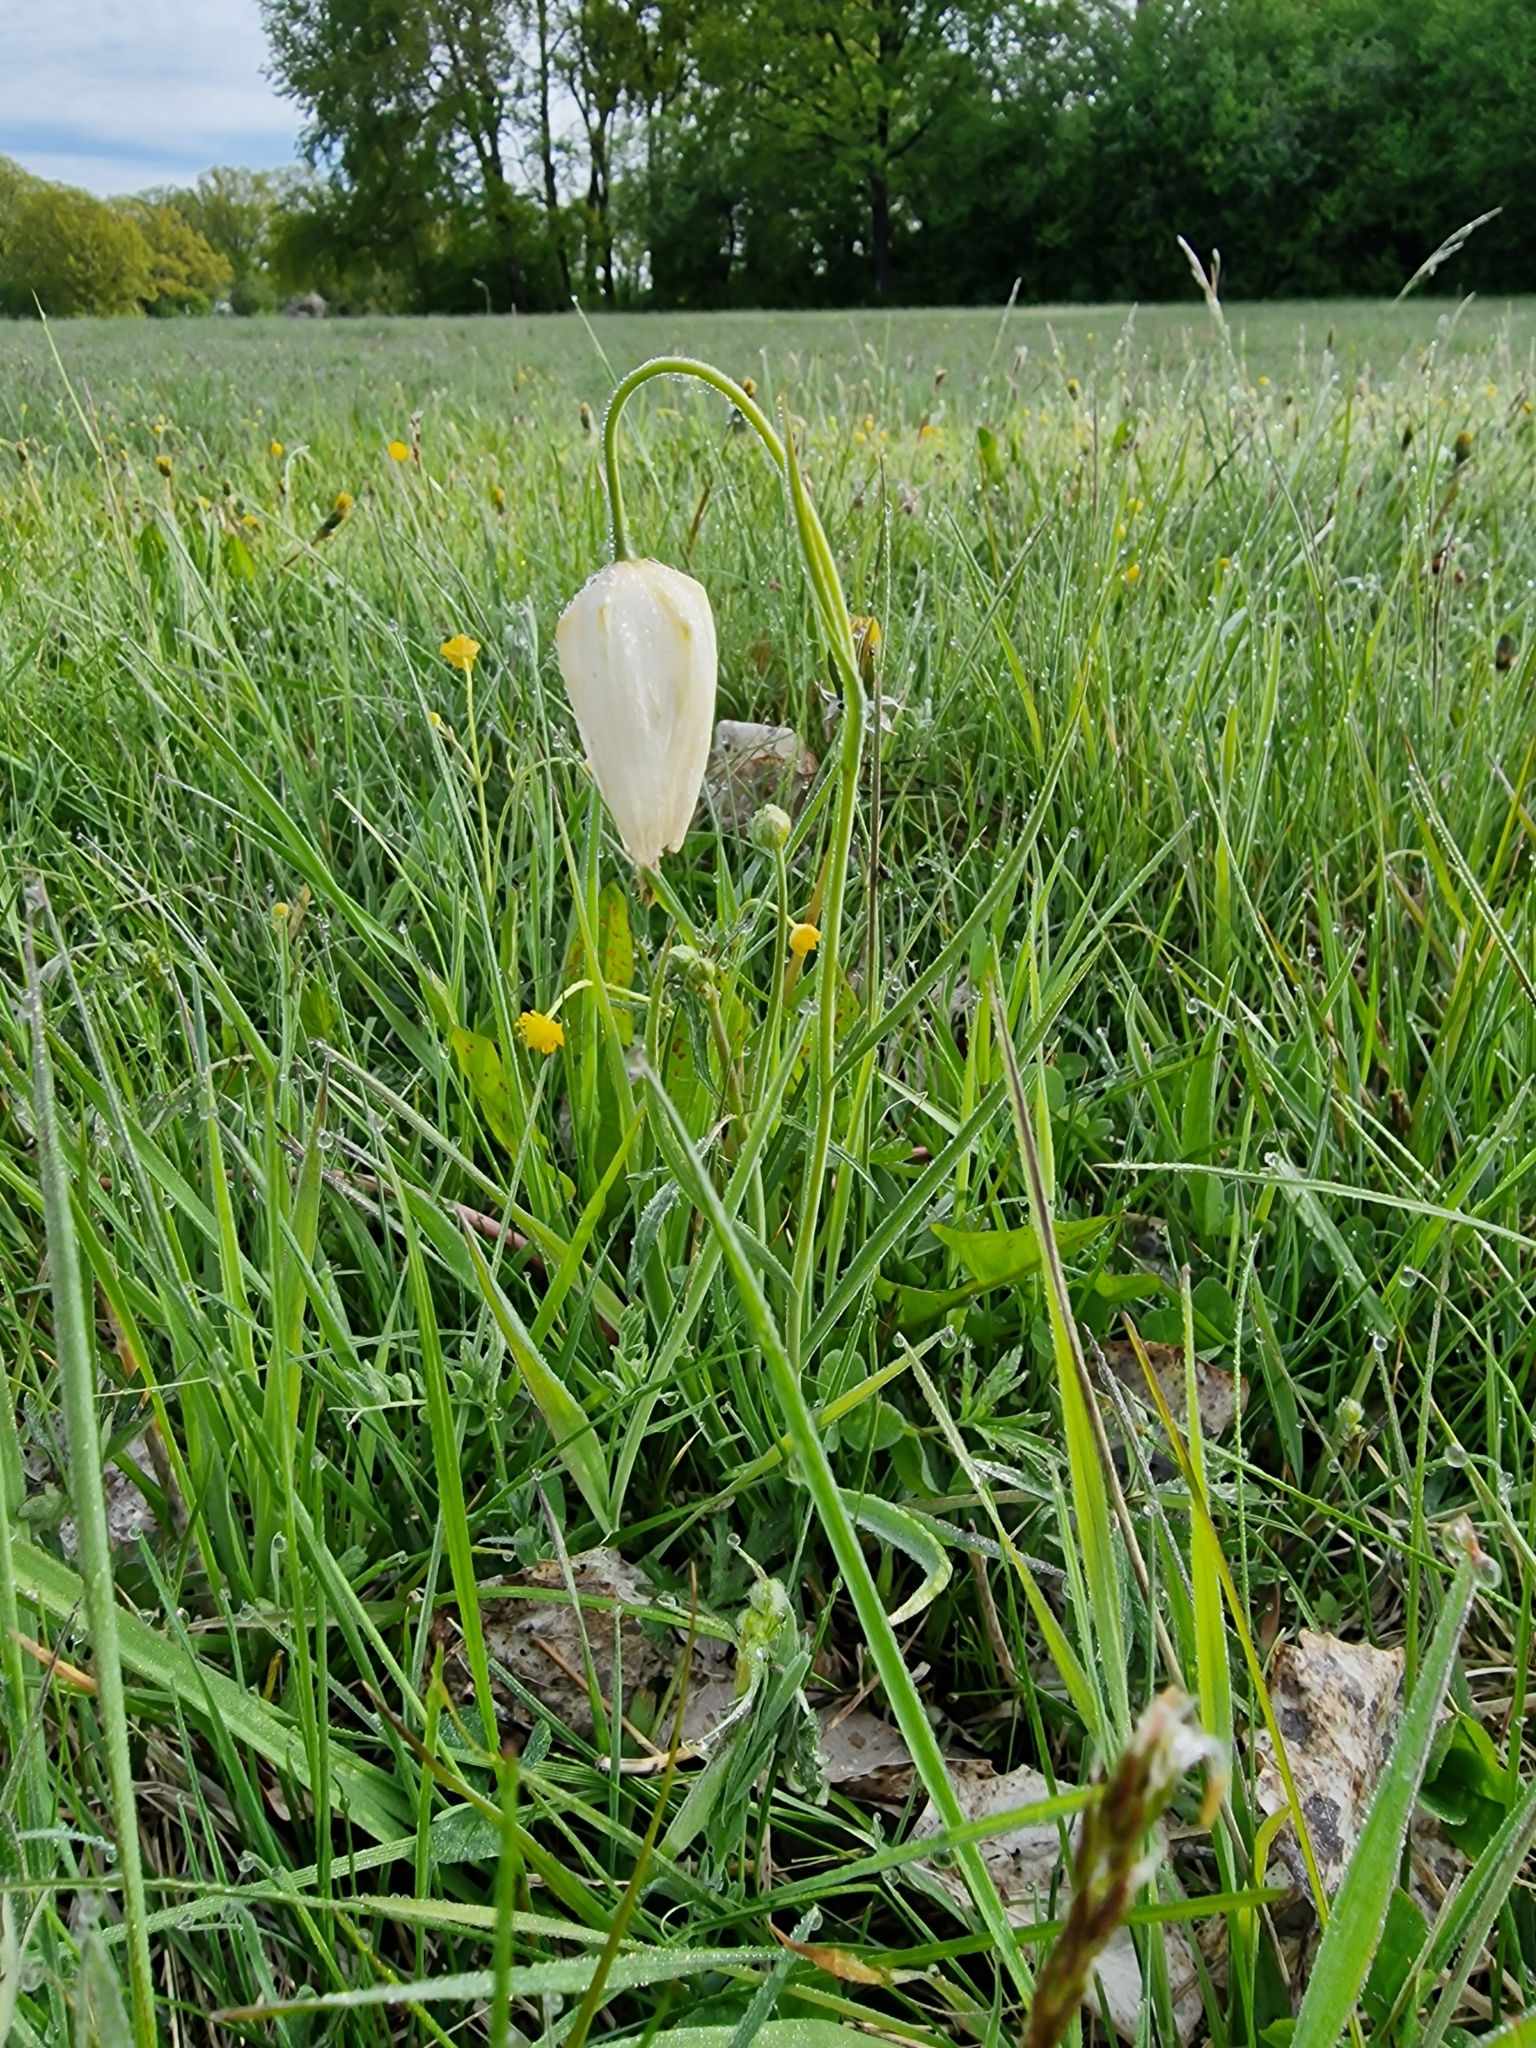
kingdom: Plantae
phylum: Tracheophyta
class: Liliopsida
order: Liliales
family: Liliaceae
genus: Fritillaria
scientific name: Fritillaria meleagris
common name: Fritillary
